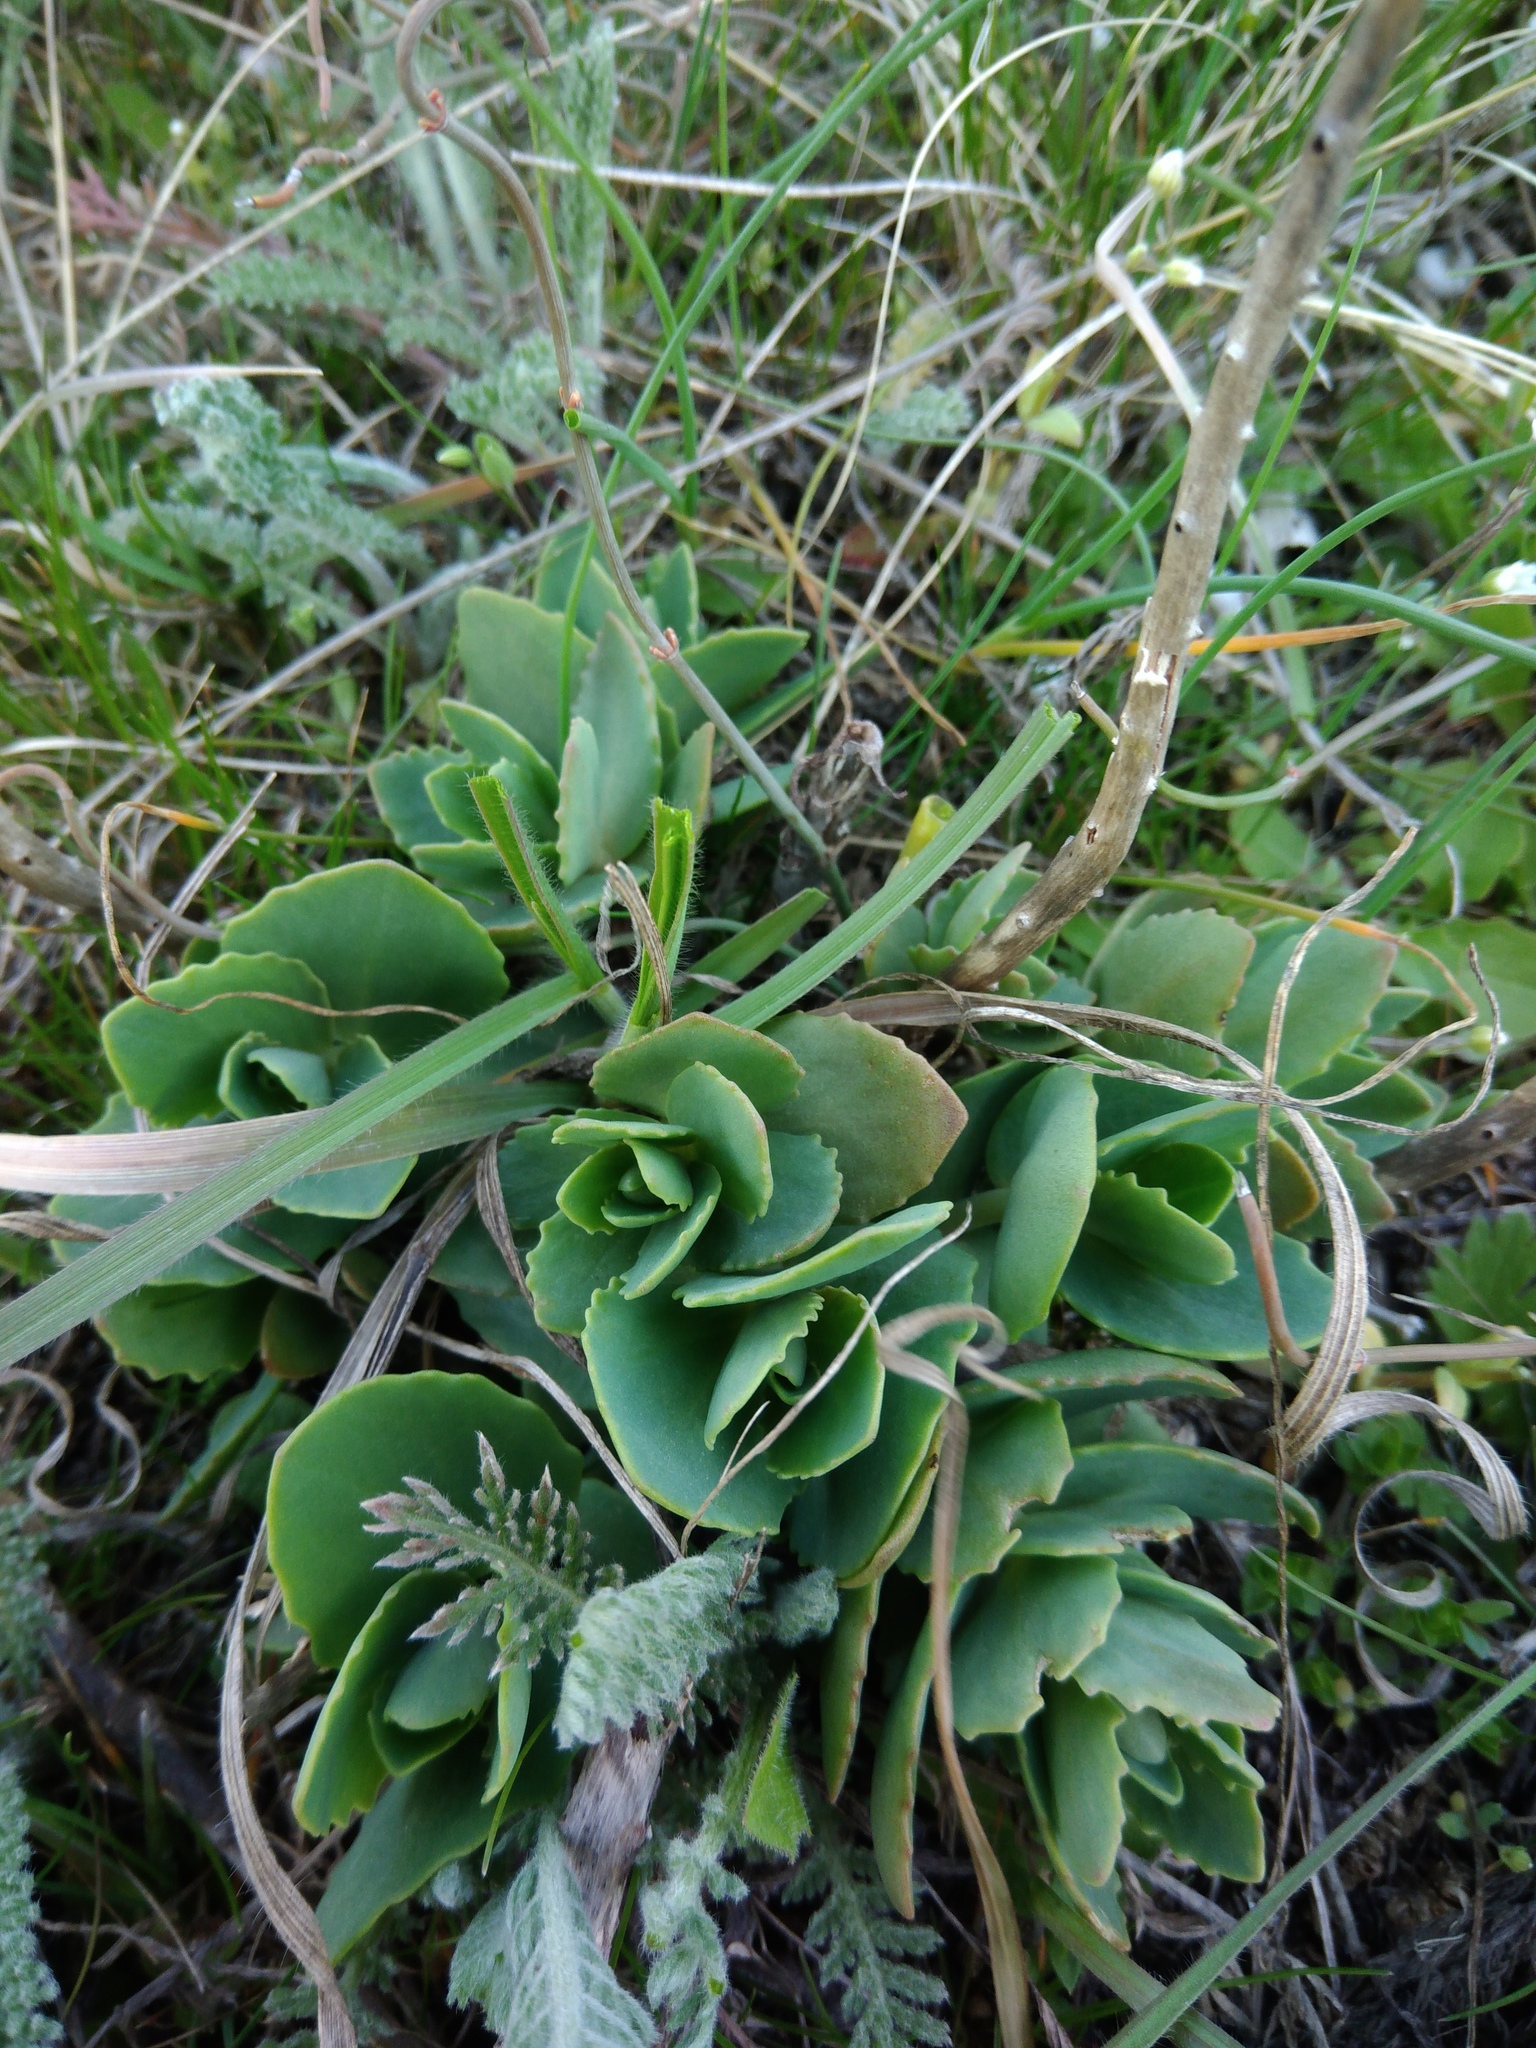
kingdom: Plantae
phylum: Tracheophyta
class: Magnoliopsida
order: Saxifragales
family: Crassulaceae
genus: Hylotelephium
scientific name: Hylotelephium maximum
